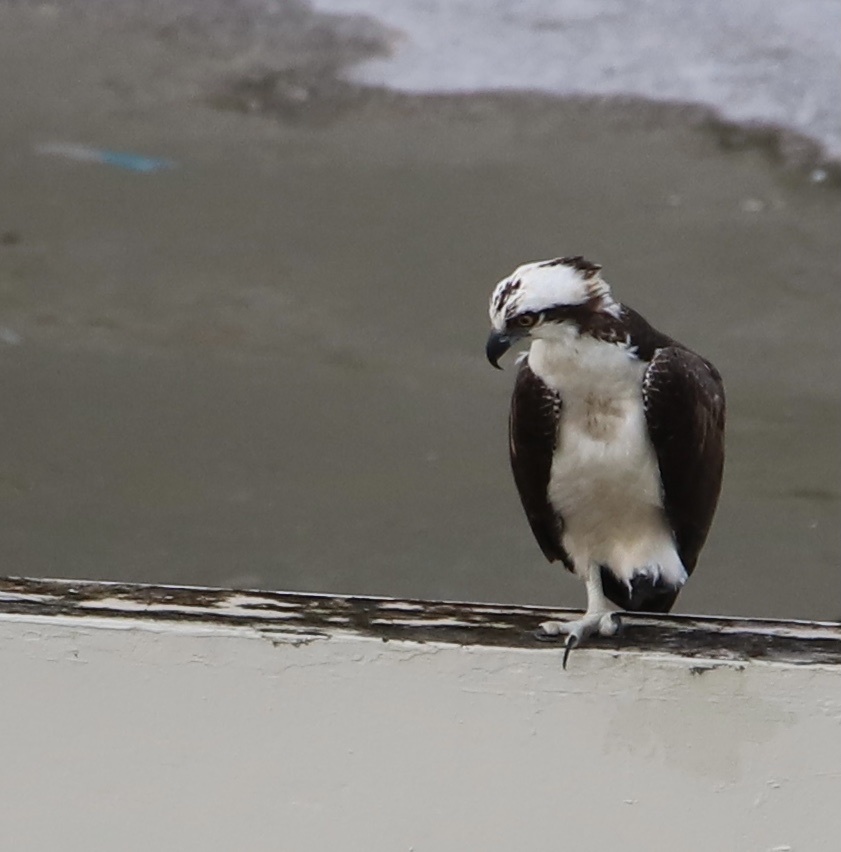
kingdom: Animalia
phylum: Chordata
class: Aves
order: Accipitriformes
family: Pandionidae
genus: Pandion
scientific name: Pandion haliaetus
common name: Osprey
